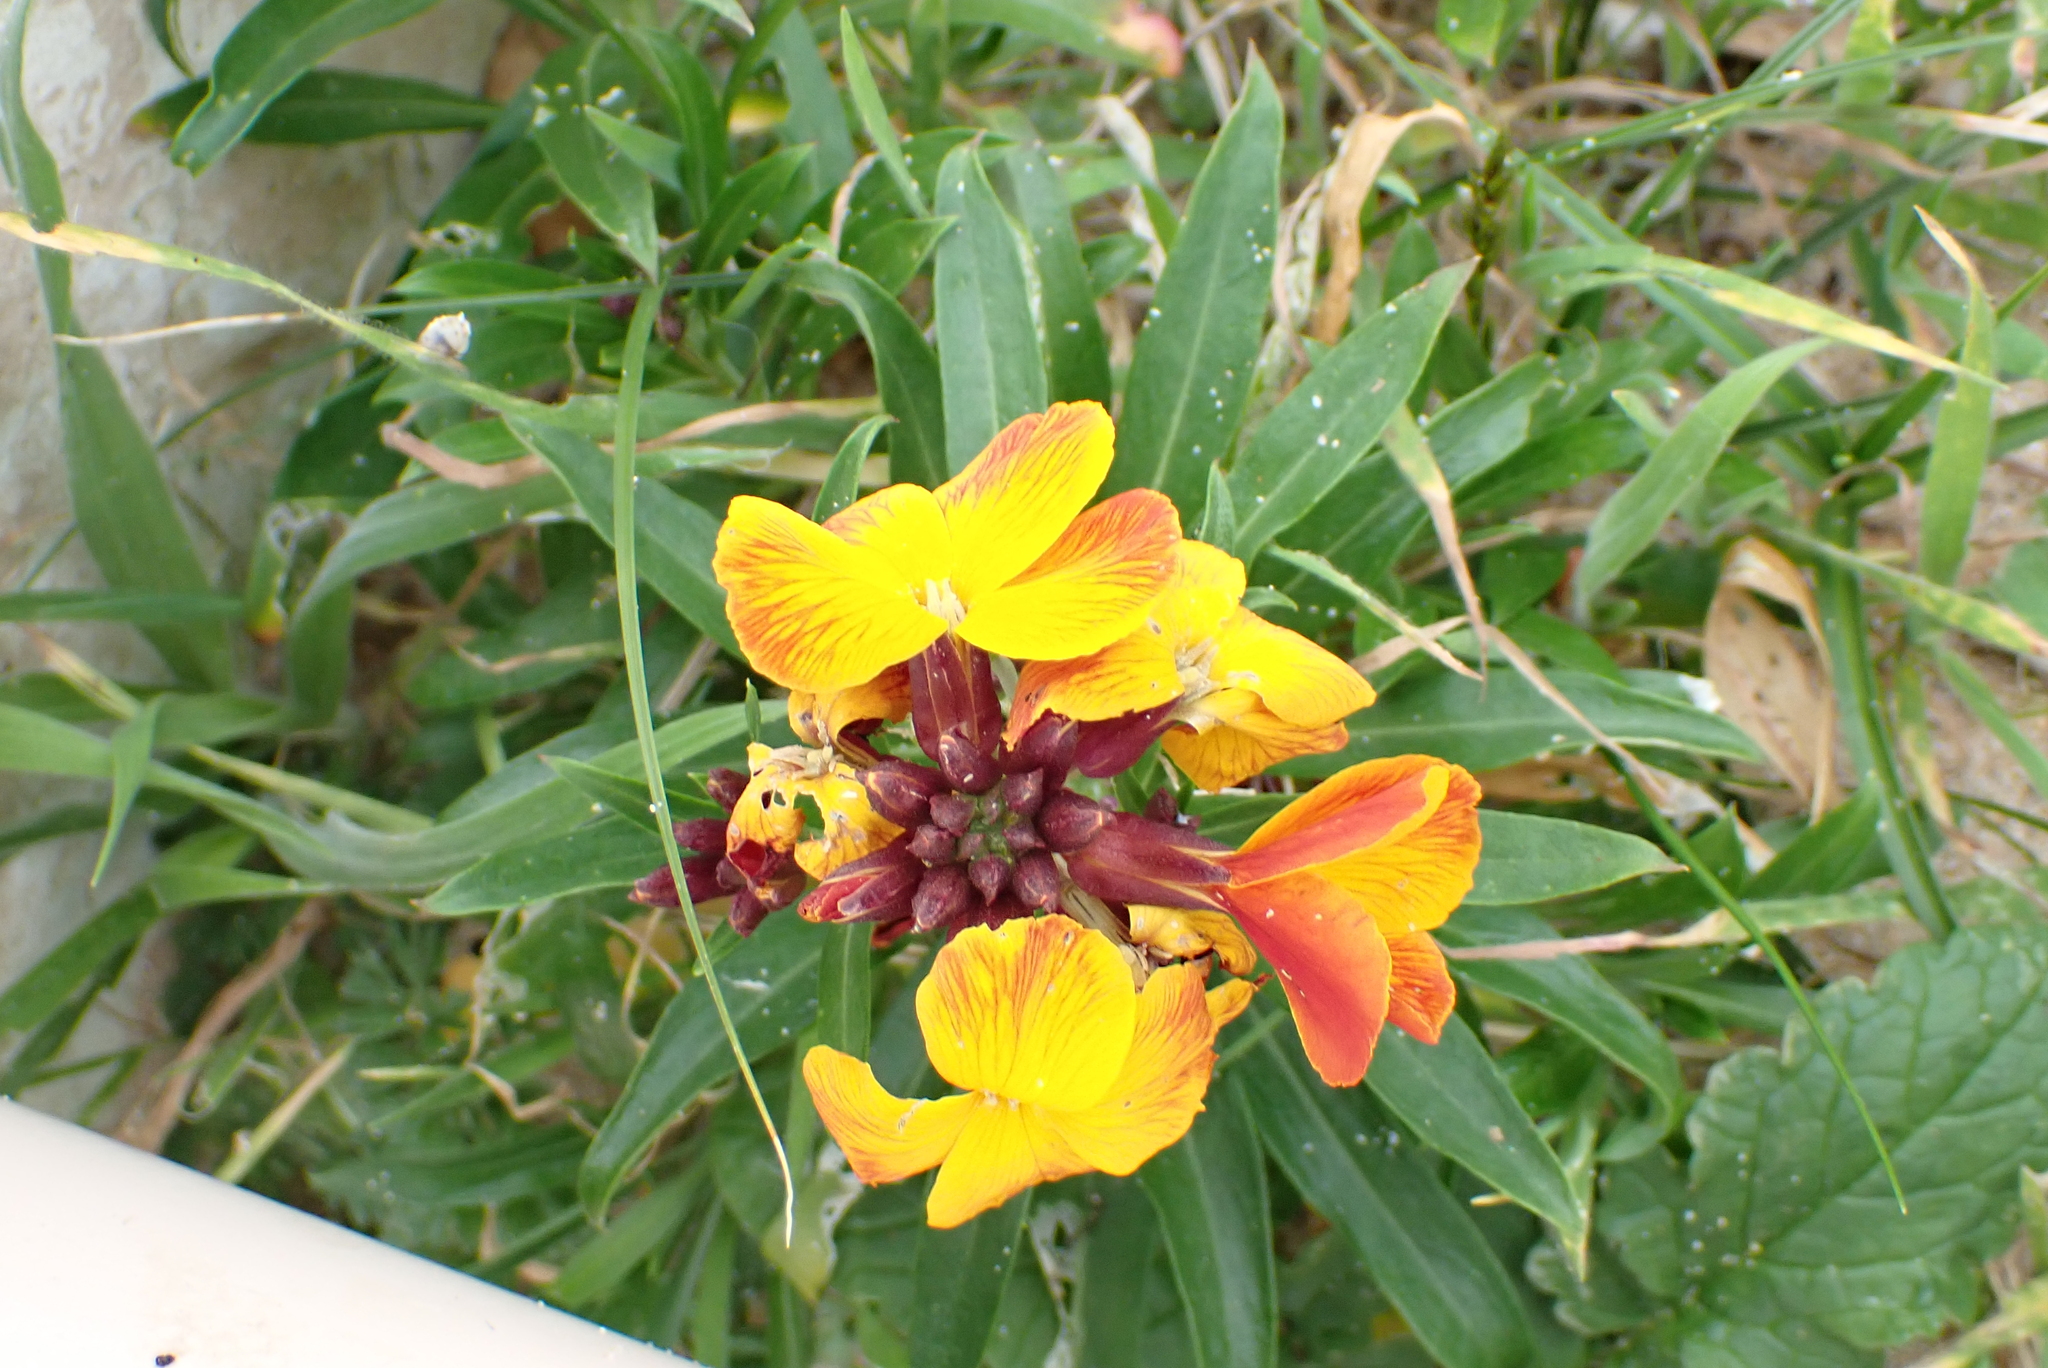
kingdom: Plantae
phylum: Tracheophyta
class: Magnoliopsida
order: Brassicales
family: Brassicaceae
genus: Erysimum
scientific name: Erysimum cheiri
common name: Wallflower
